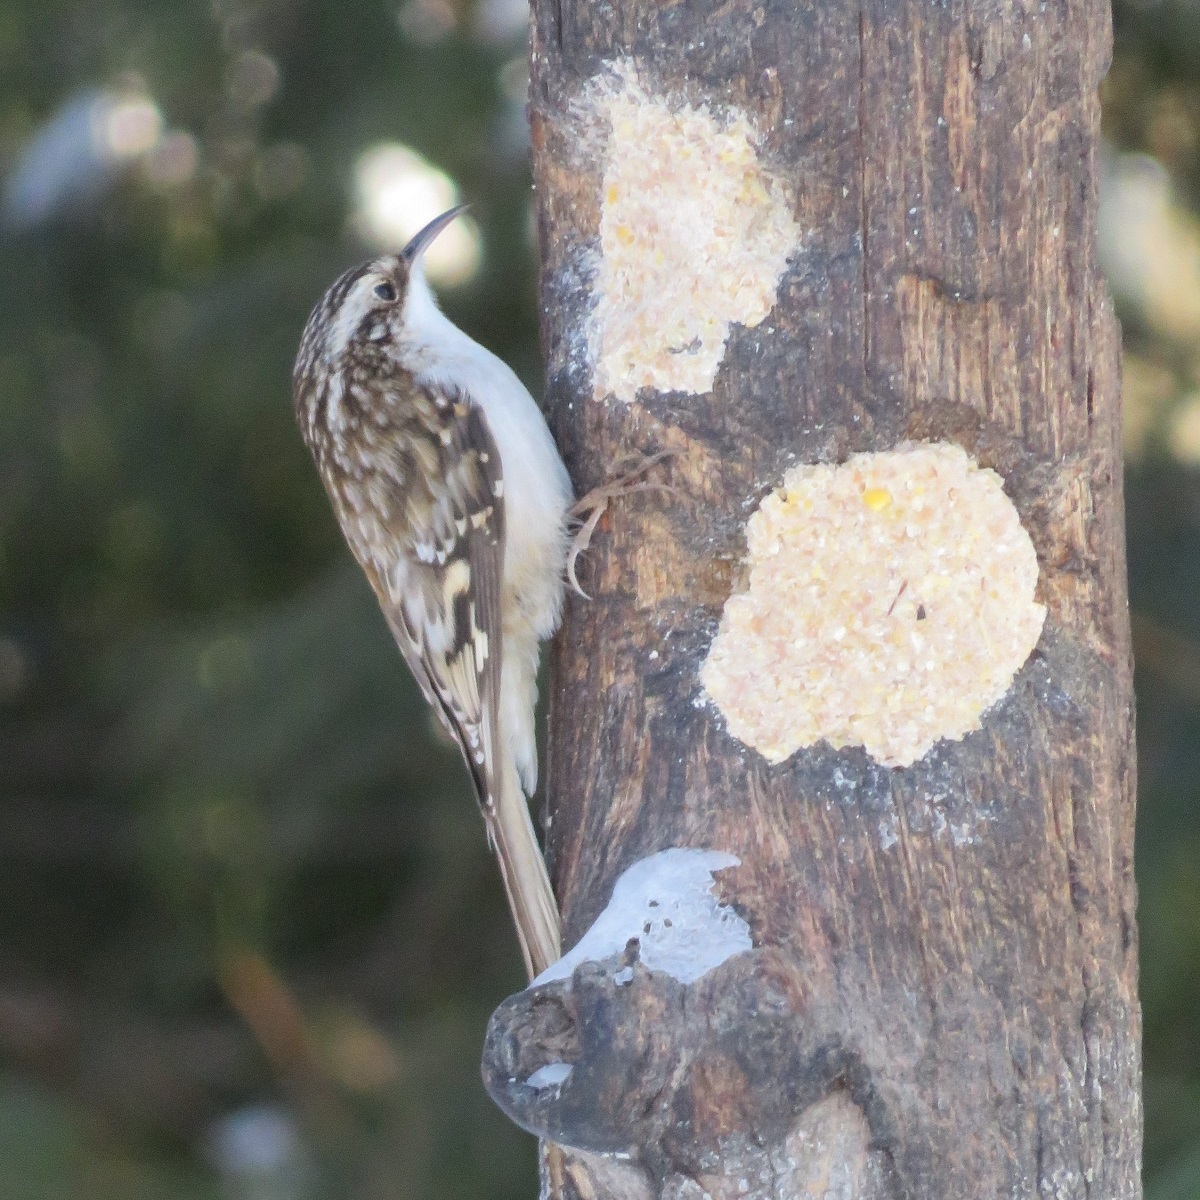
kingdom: Animalia
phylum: Chordata
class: Aves
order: Passeriformes
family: Certhiidae
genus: Certhia
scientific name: Certhia americana
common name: Brown creeper
